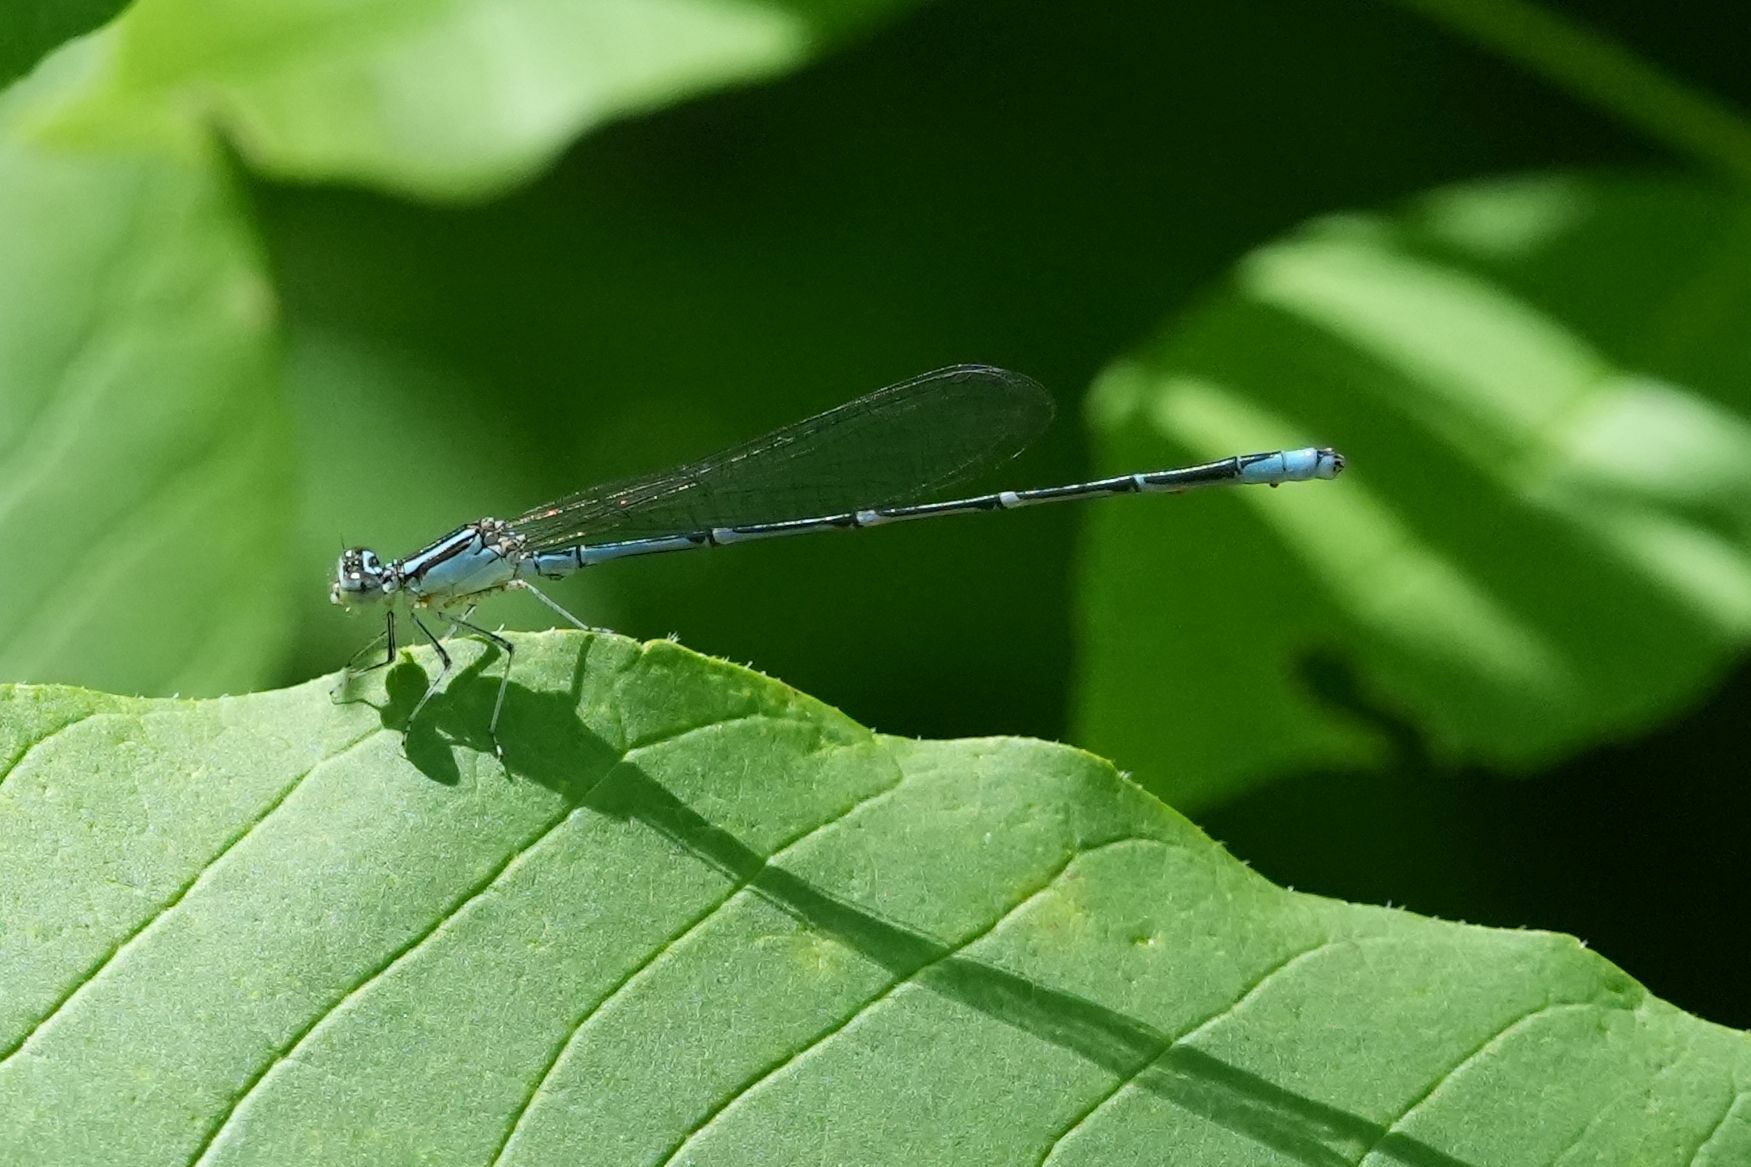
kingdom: Animalia
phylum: Arthropoda
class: Insecta
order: Odonata
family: Coenagrionidae
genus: Enallagma
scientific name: Enallagma exsulans
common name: Stream bluet
